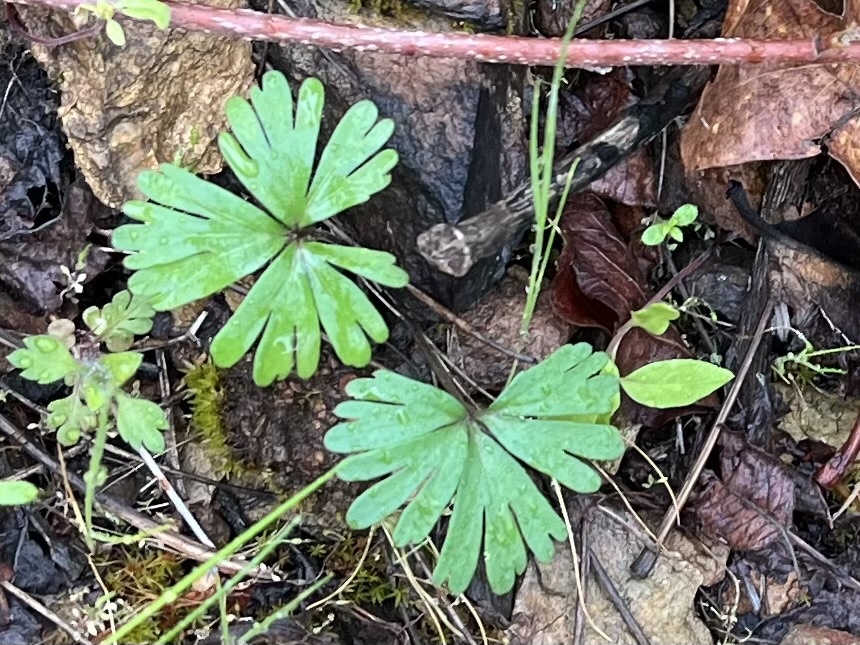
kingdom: Plantae
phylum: Tracheophyta
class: Magnoliopsida
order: Malpighiales
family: Violaceae
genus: Viola
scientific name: Viola sheltonii
